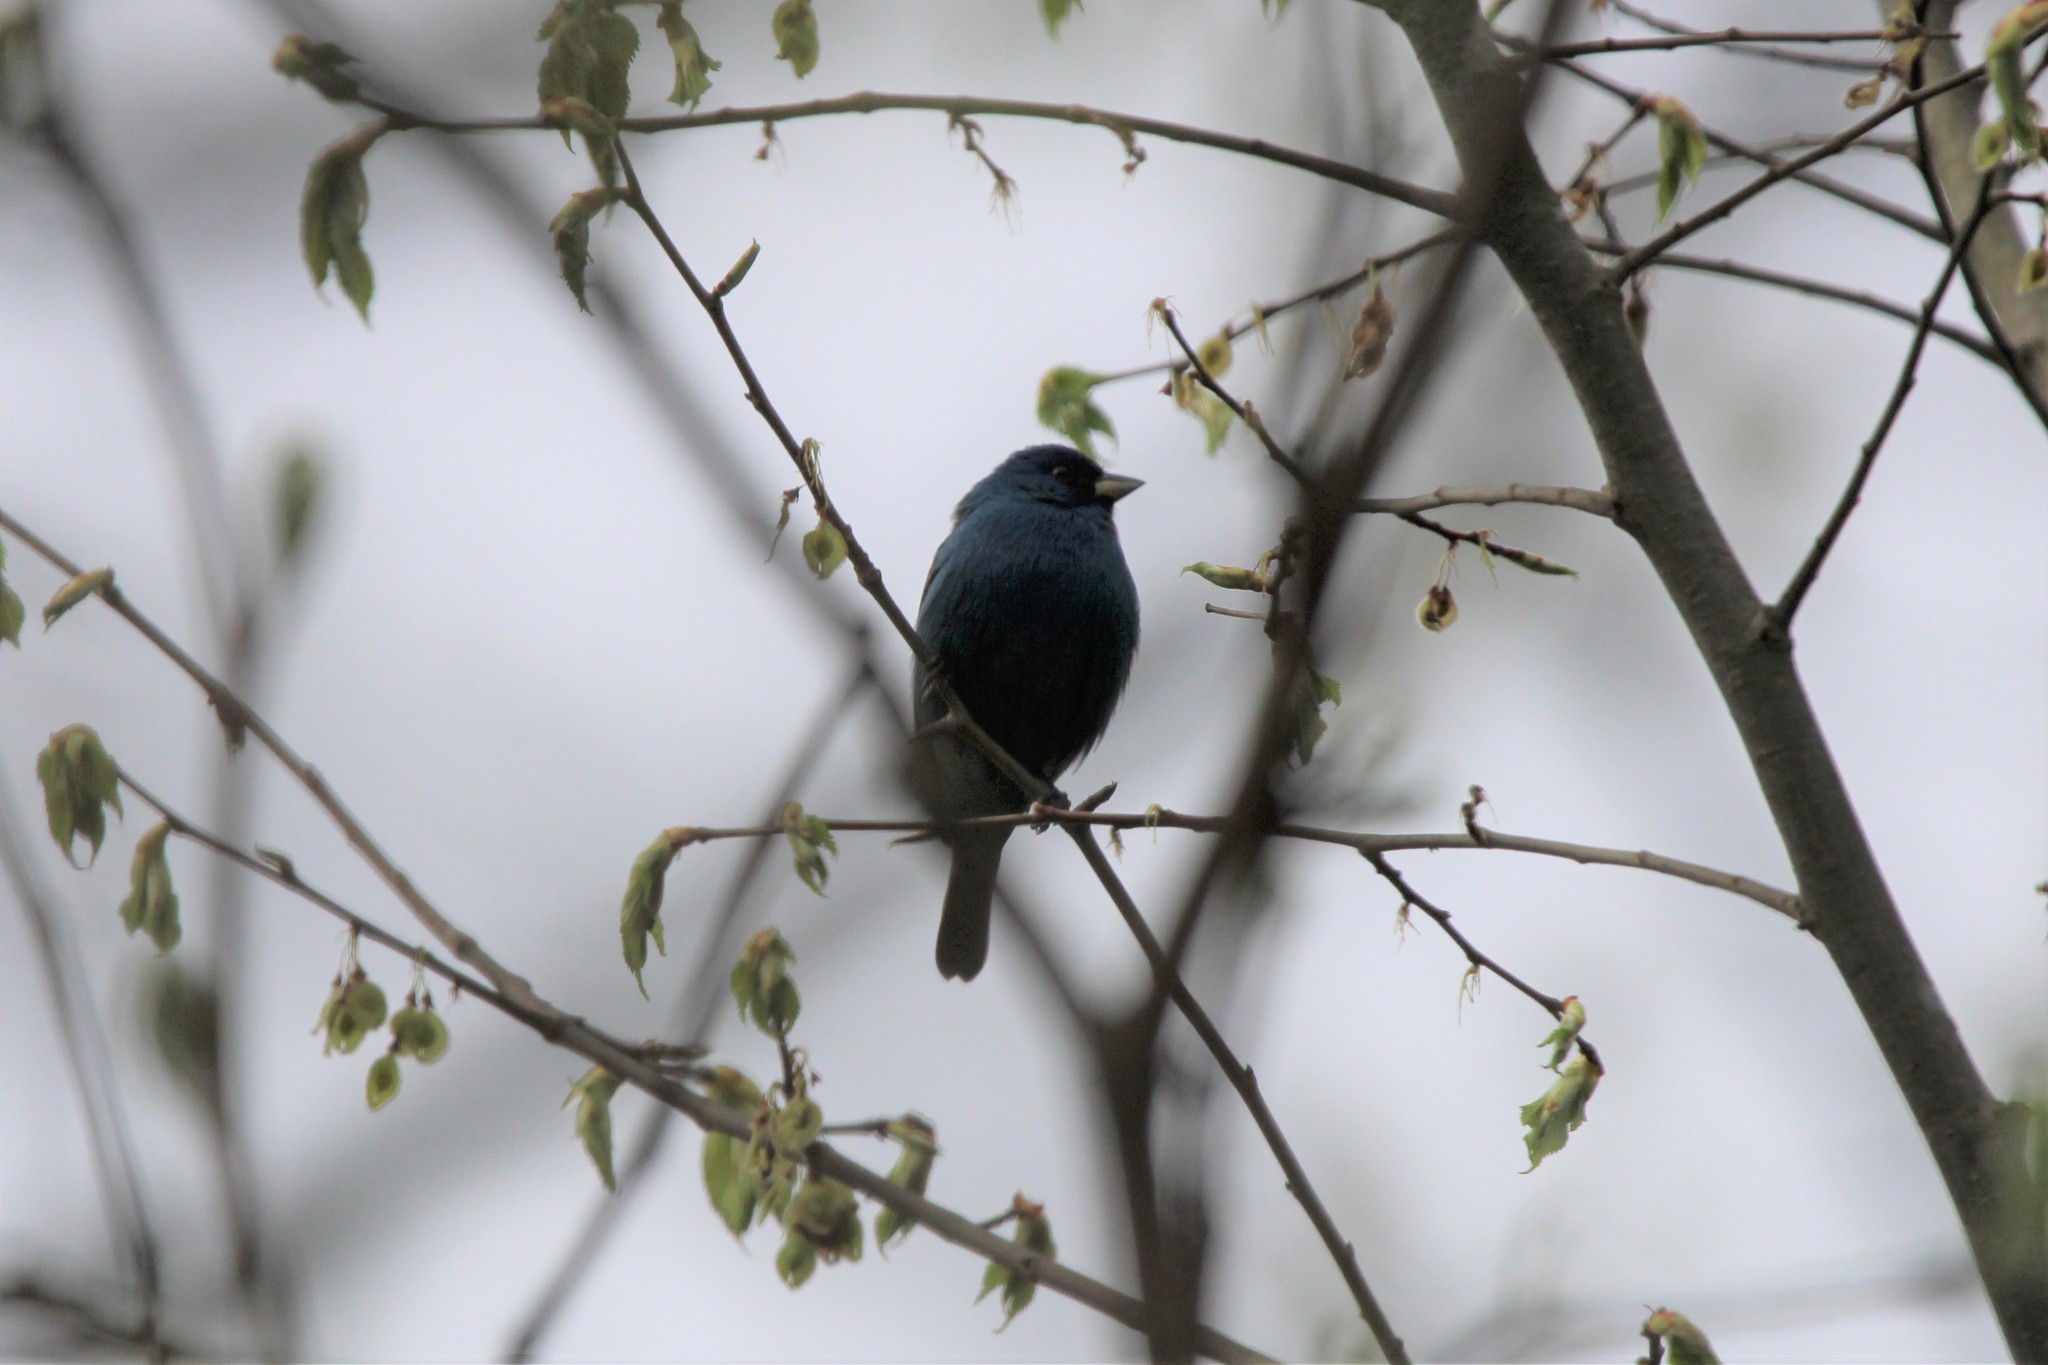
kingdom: Animalia
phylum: Chordata
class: Aves
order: Passeriformes
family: Cardinalidae
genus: Passerina
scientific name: Passerina cyanea
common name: Indigo bunting
